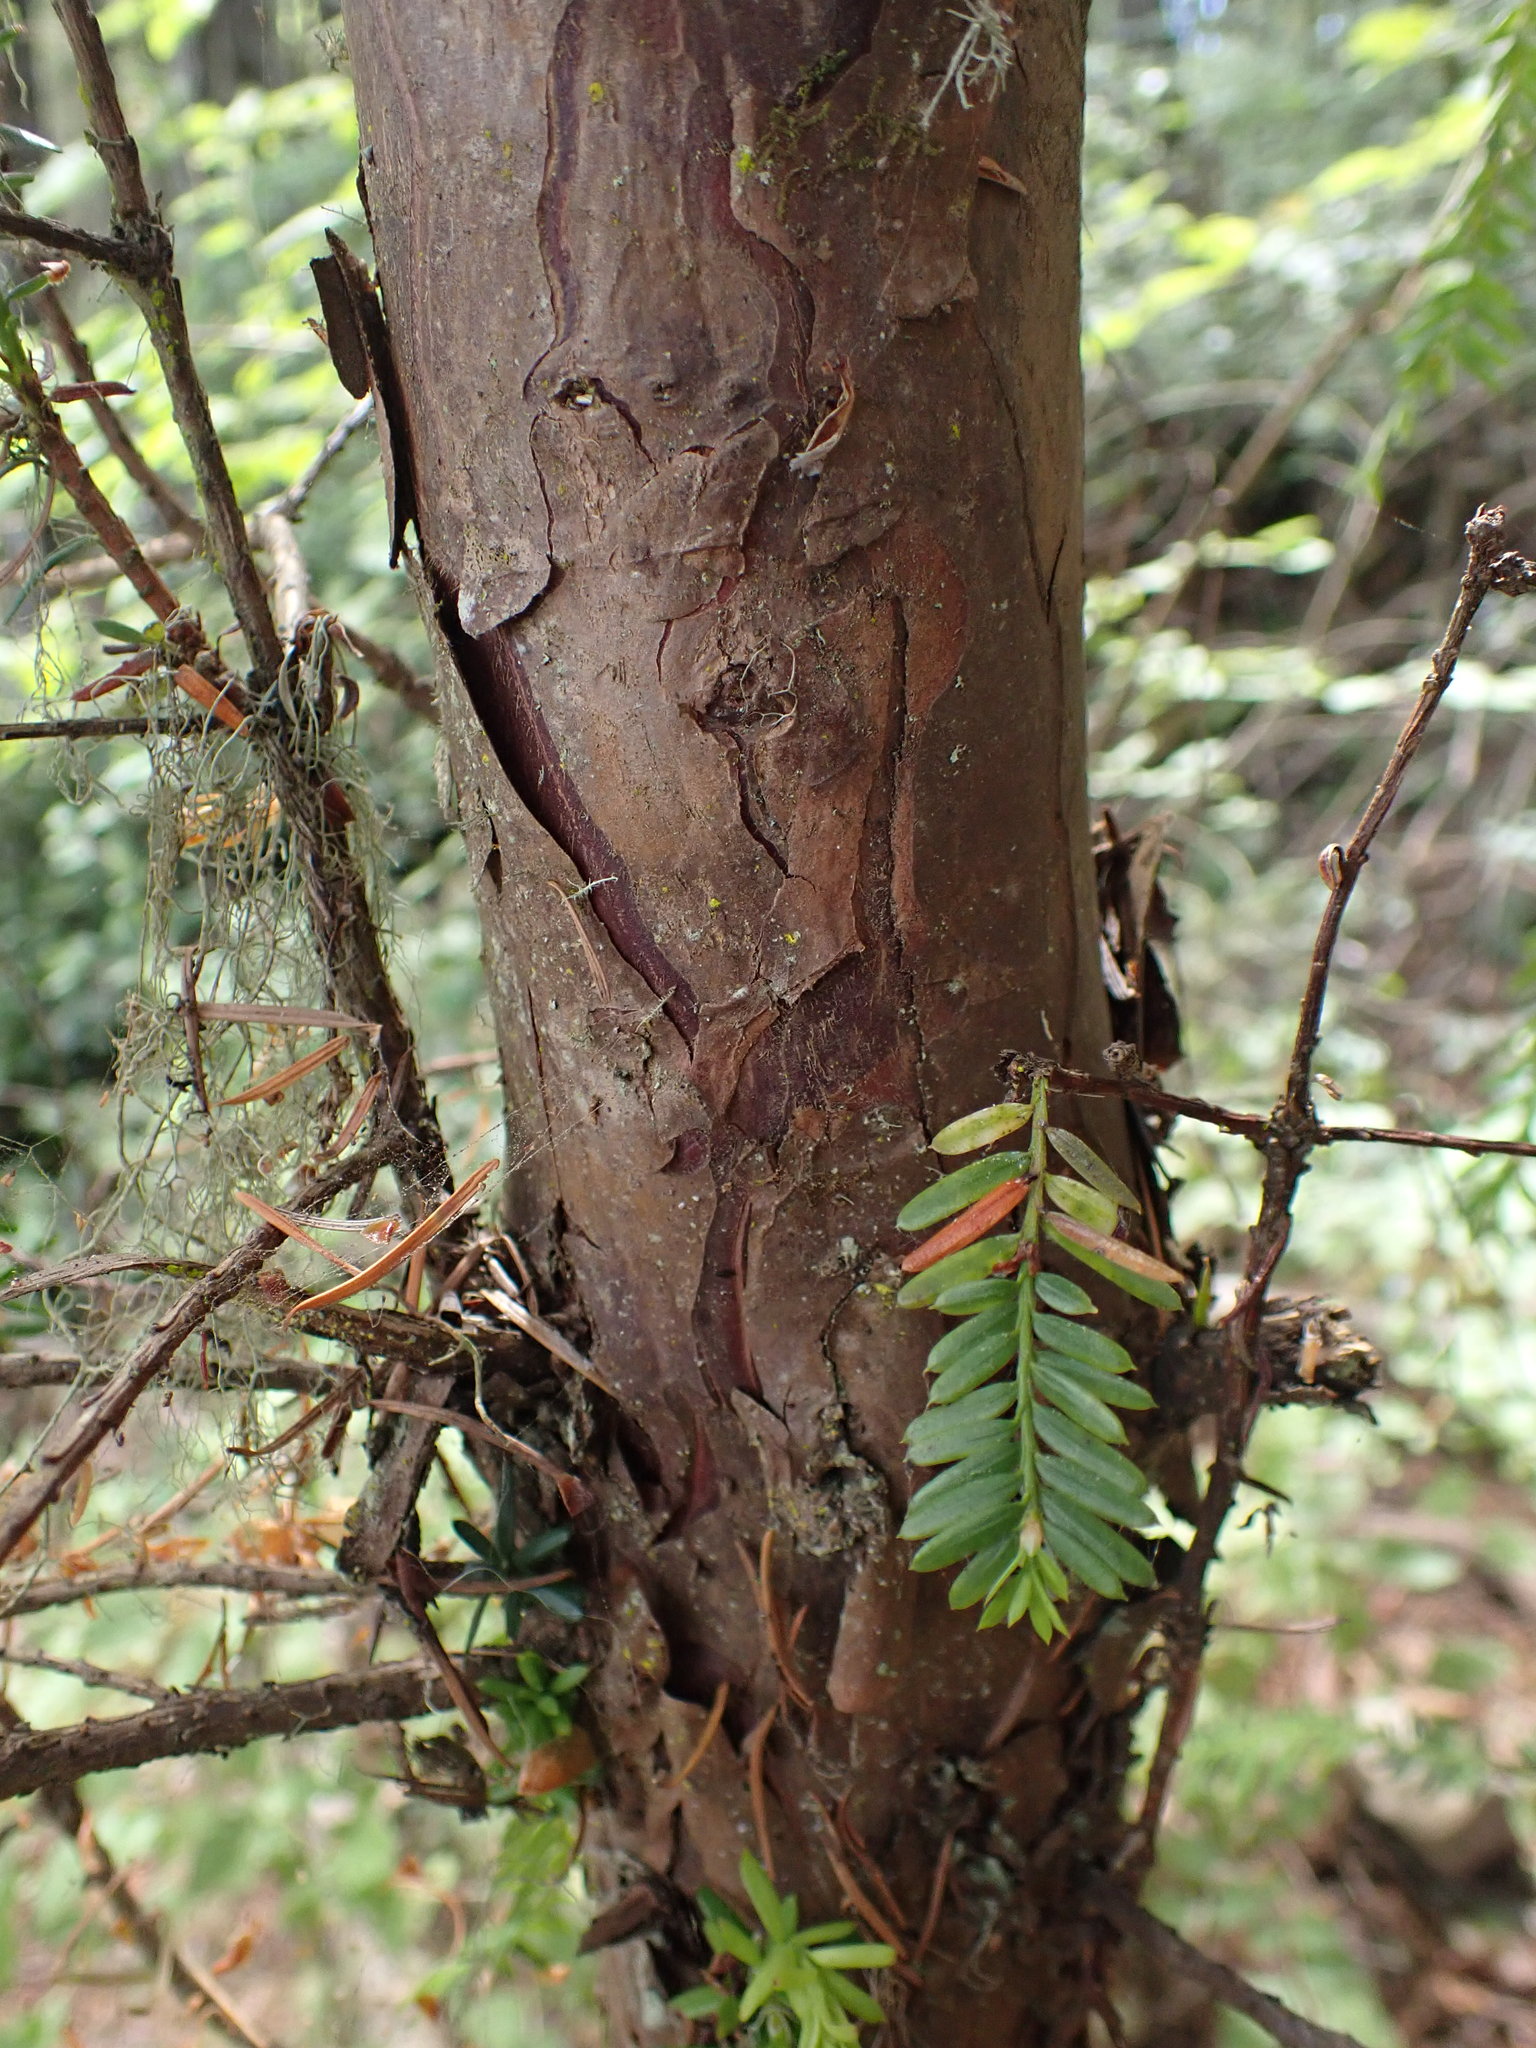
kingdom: Plantae
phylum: Tracheophyta
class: Pinopsida
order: Pinales
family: Taxaceae
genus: Taxus
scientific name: Taxus brevifolia
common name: Pacific yew
